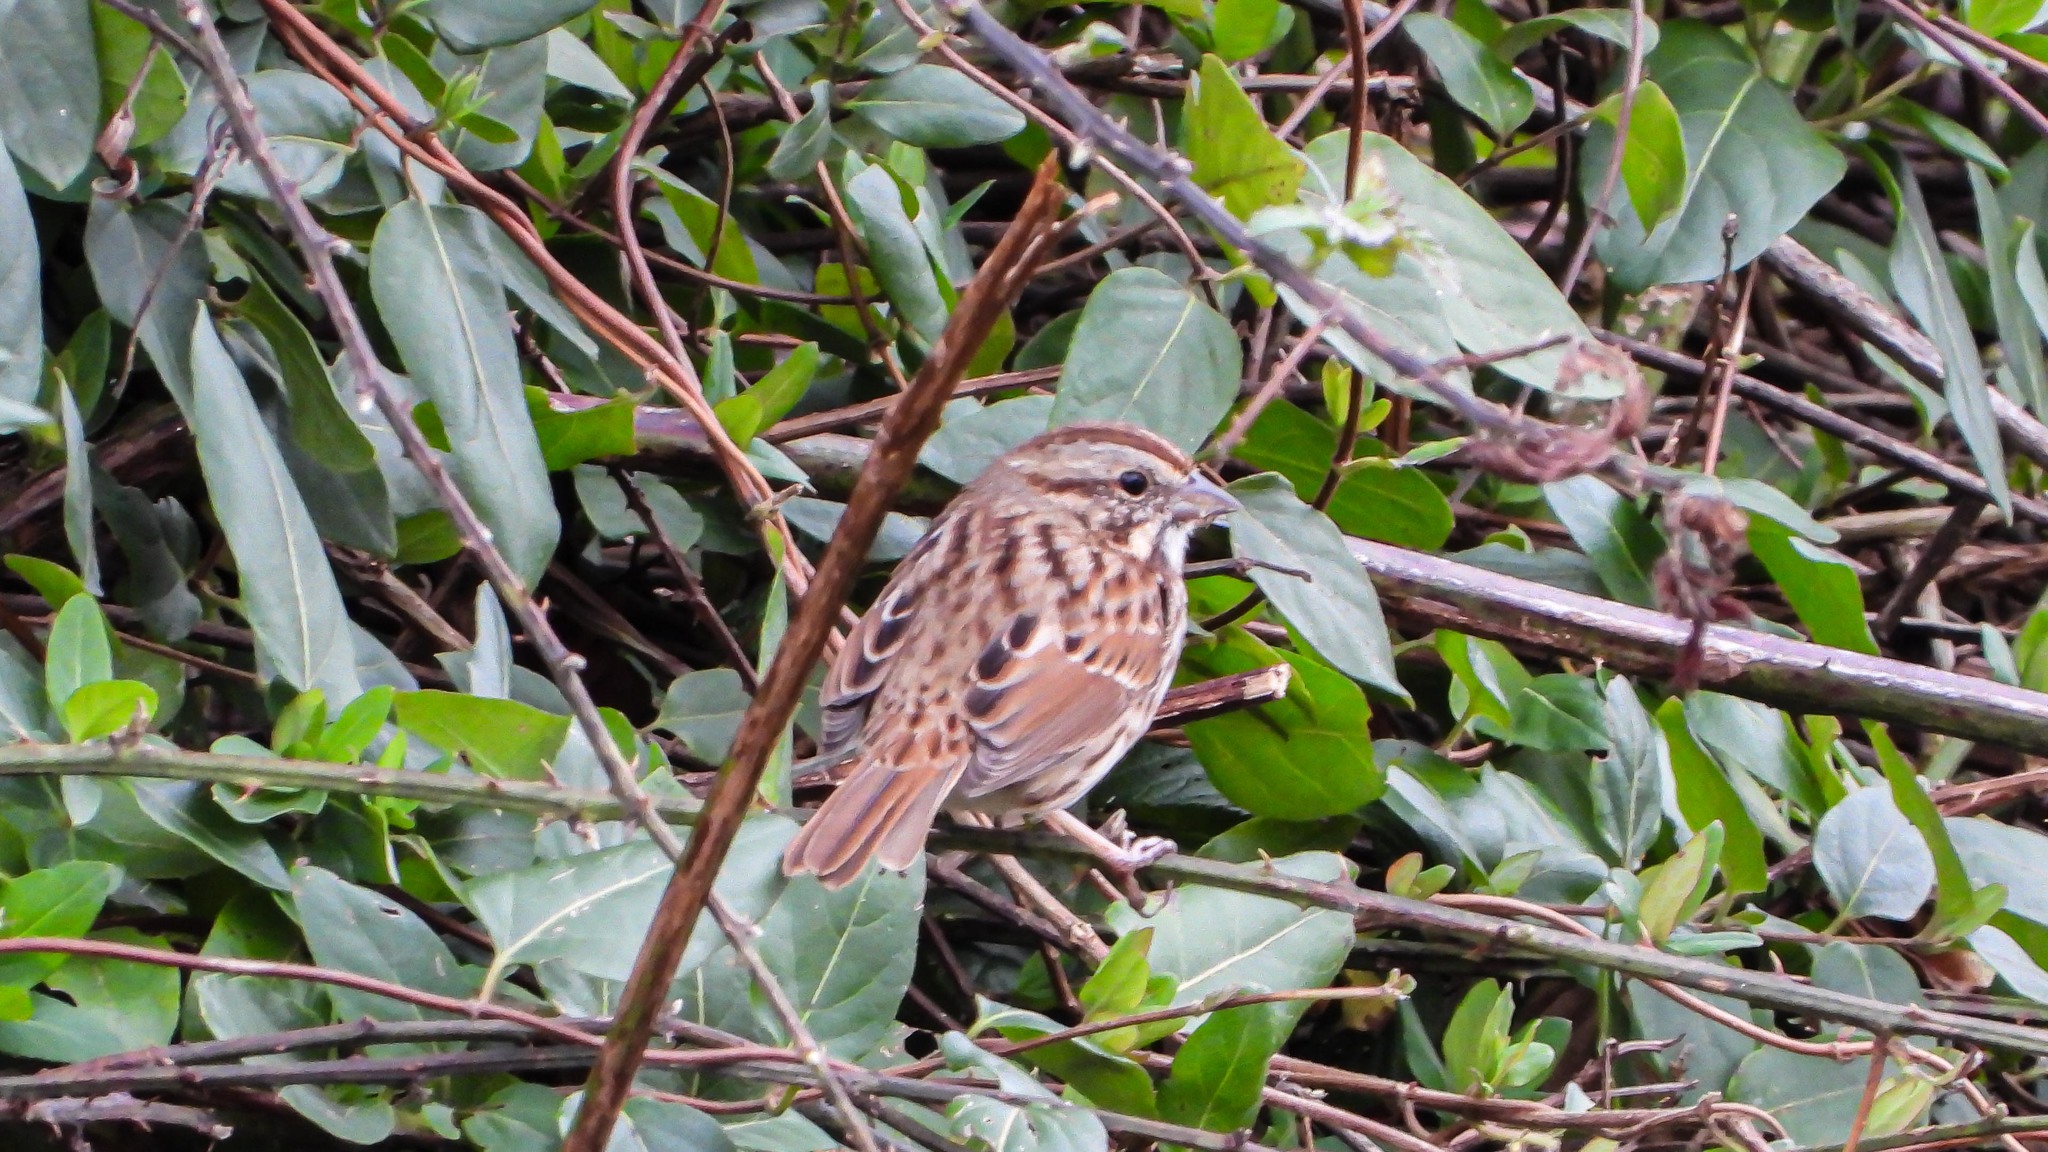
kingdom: Animalia
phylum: Chordata
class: Aves
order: Passeriformes
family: Passerellidae
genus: Melospiza
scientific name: Melospiza melodia
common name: Song sparrow
